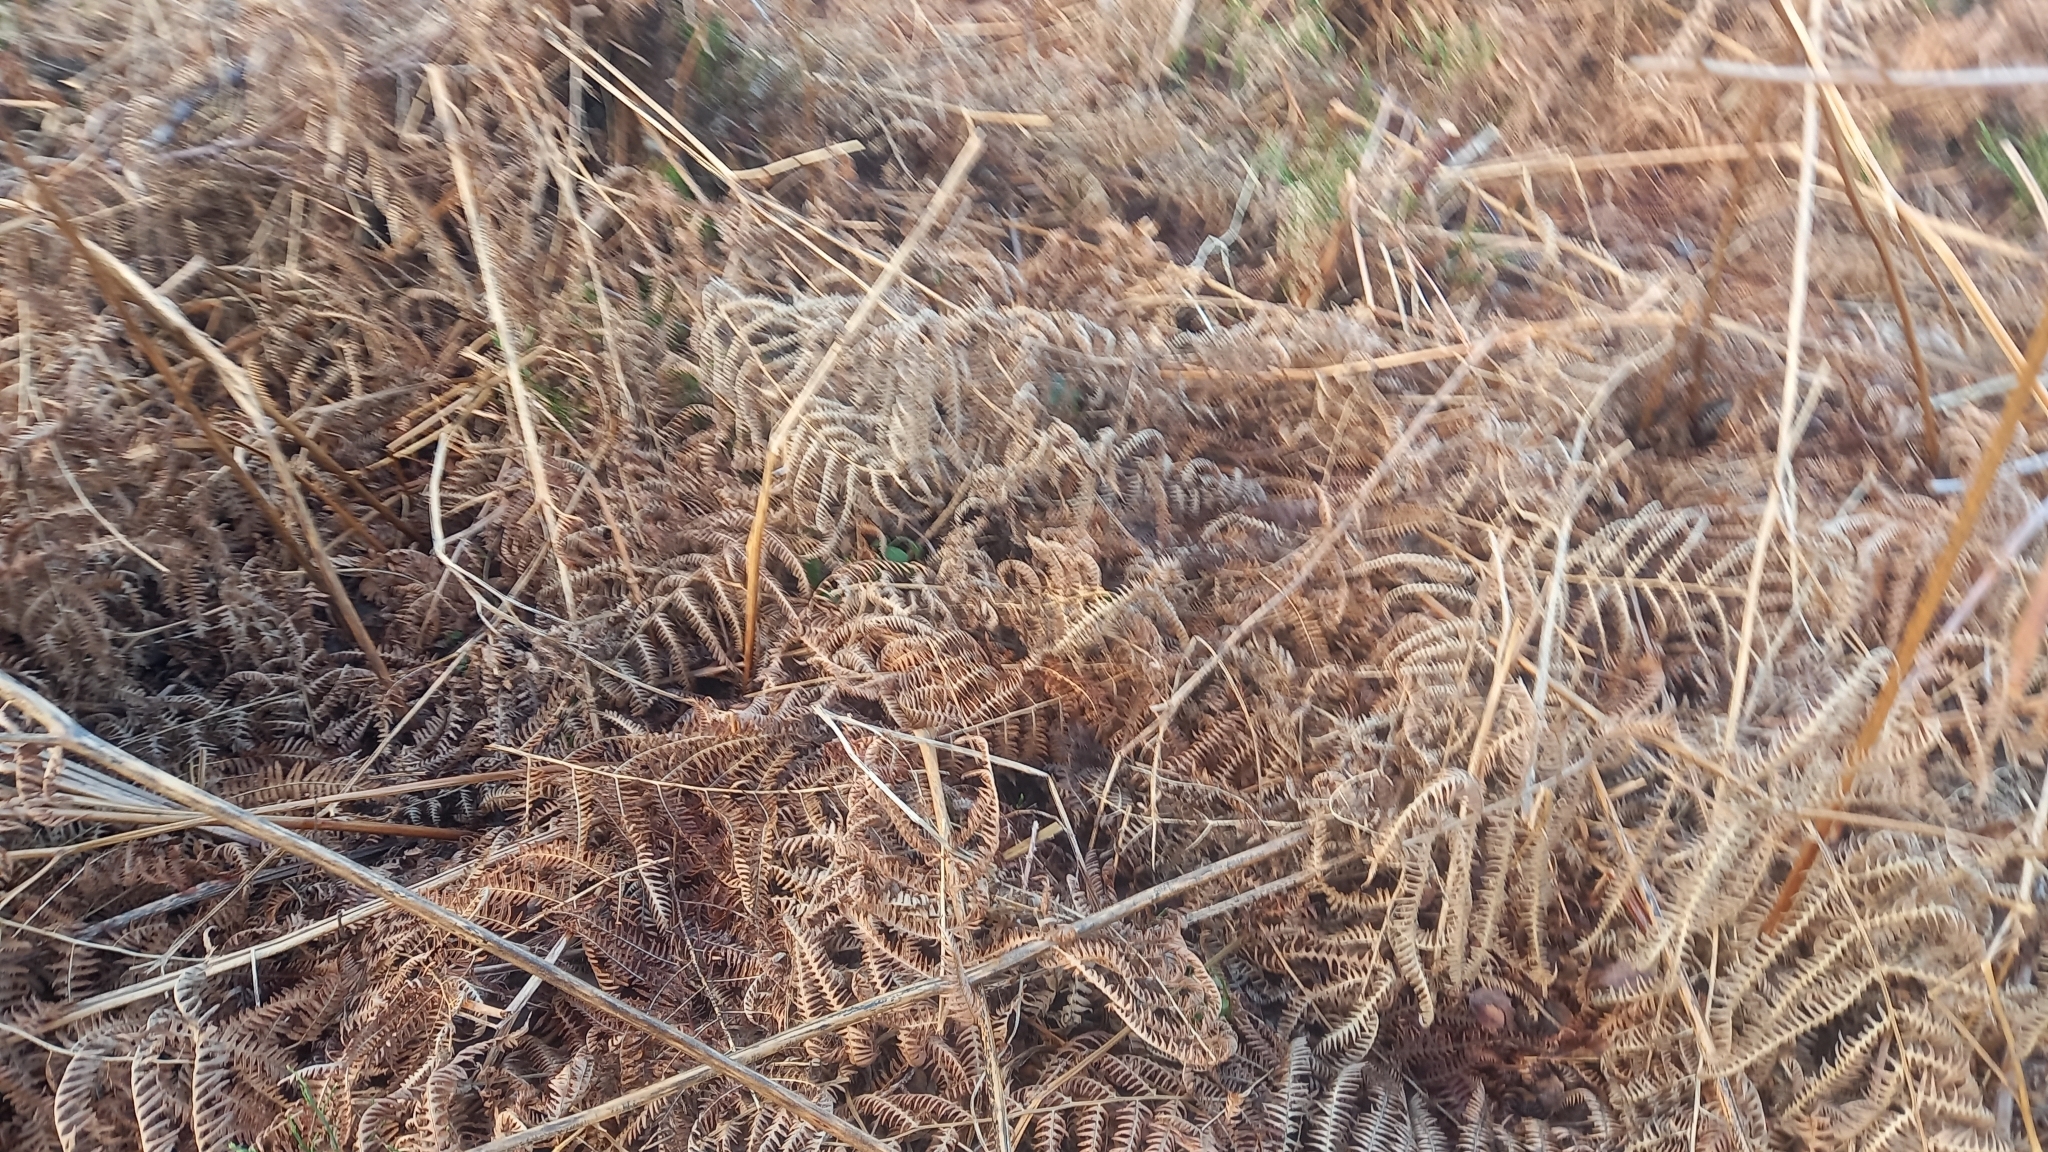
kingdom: Plantae
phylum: Tracheophyta
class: Polypodiopsida
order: Polypodiales
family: Dennstaedtiaceae
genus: Pteridium
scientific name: Pteridium aquilinum
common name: Bracken
